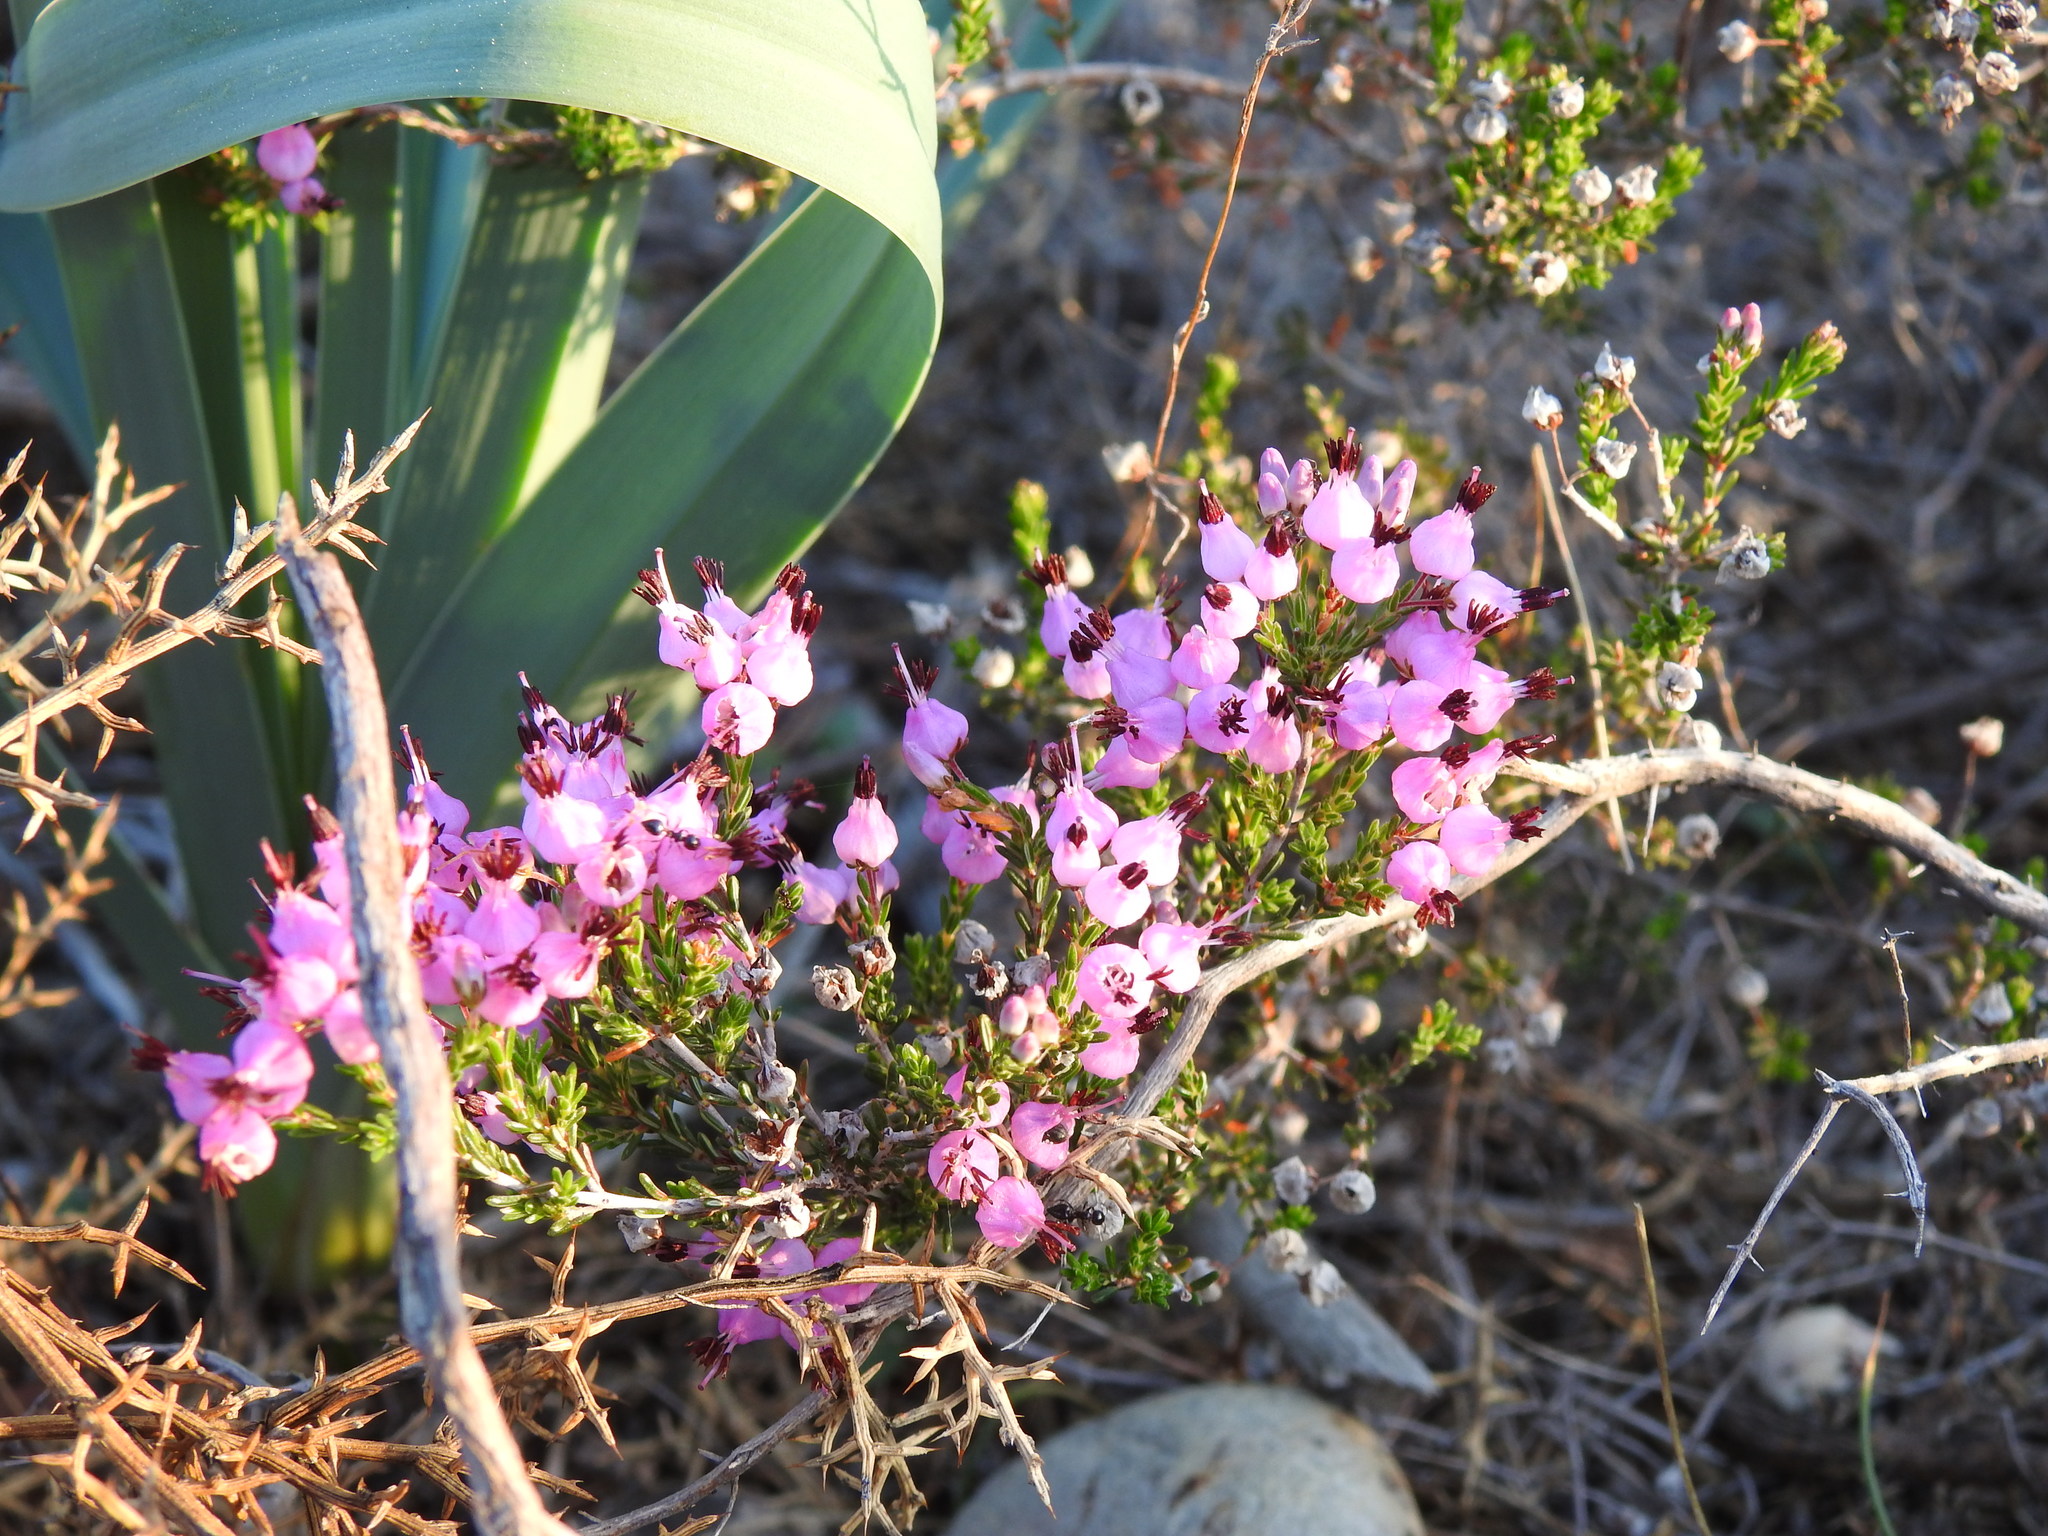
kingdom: Plantae
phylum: Tracheophyta
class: Magnoliopsida
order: Ericales
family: Ericaceae
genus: Erica
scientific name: Erica umbellata
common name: Dwarf spanish heath
